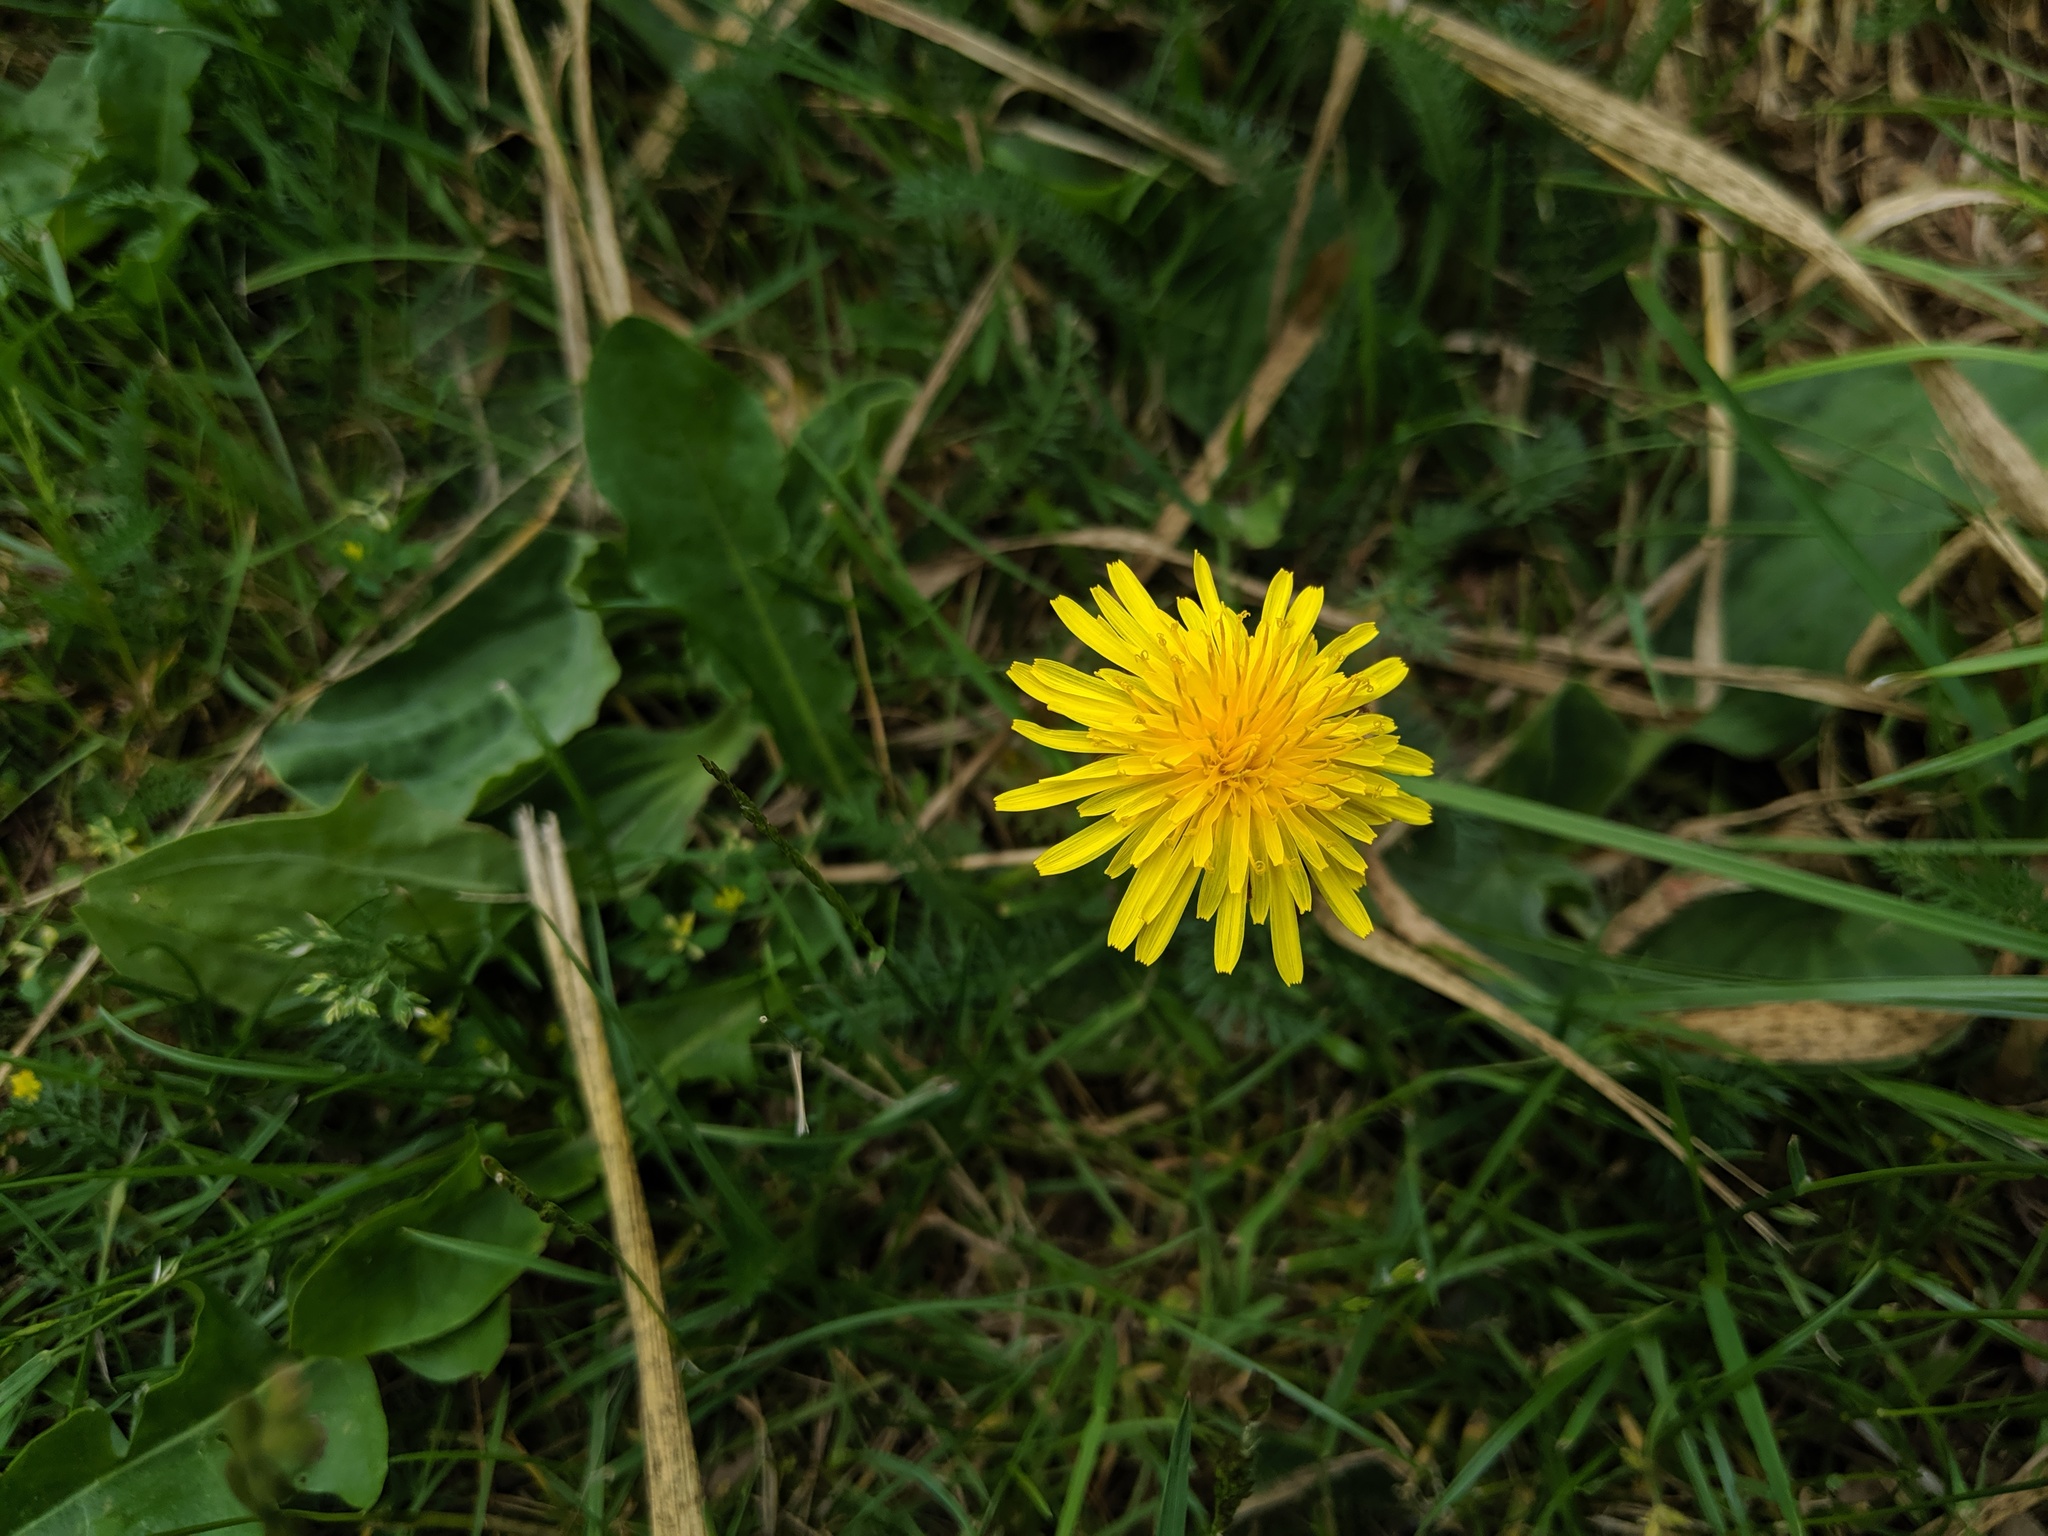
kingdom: Plantae
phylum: Tracheophyta
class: Magnoliopsida
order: Asterales
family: Asteraceae
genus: Taraxacum
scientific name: Taraxacum officinale
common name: Common dandelion
